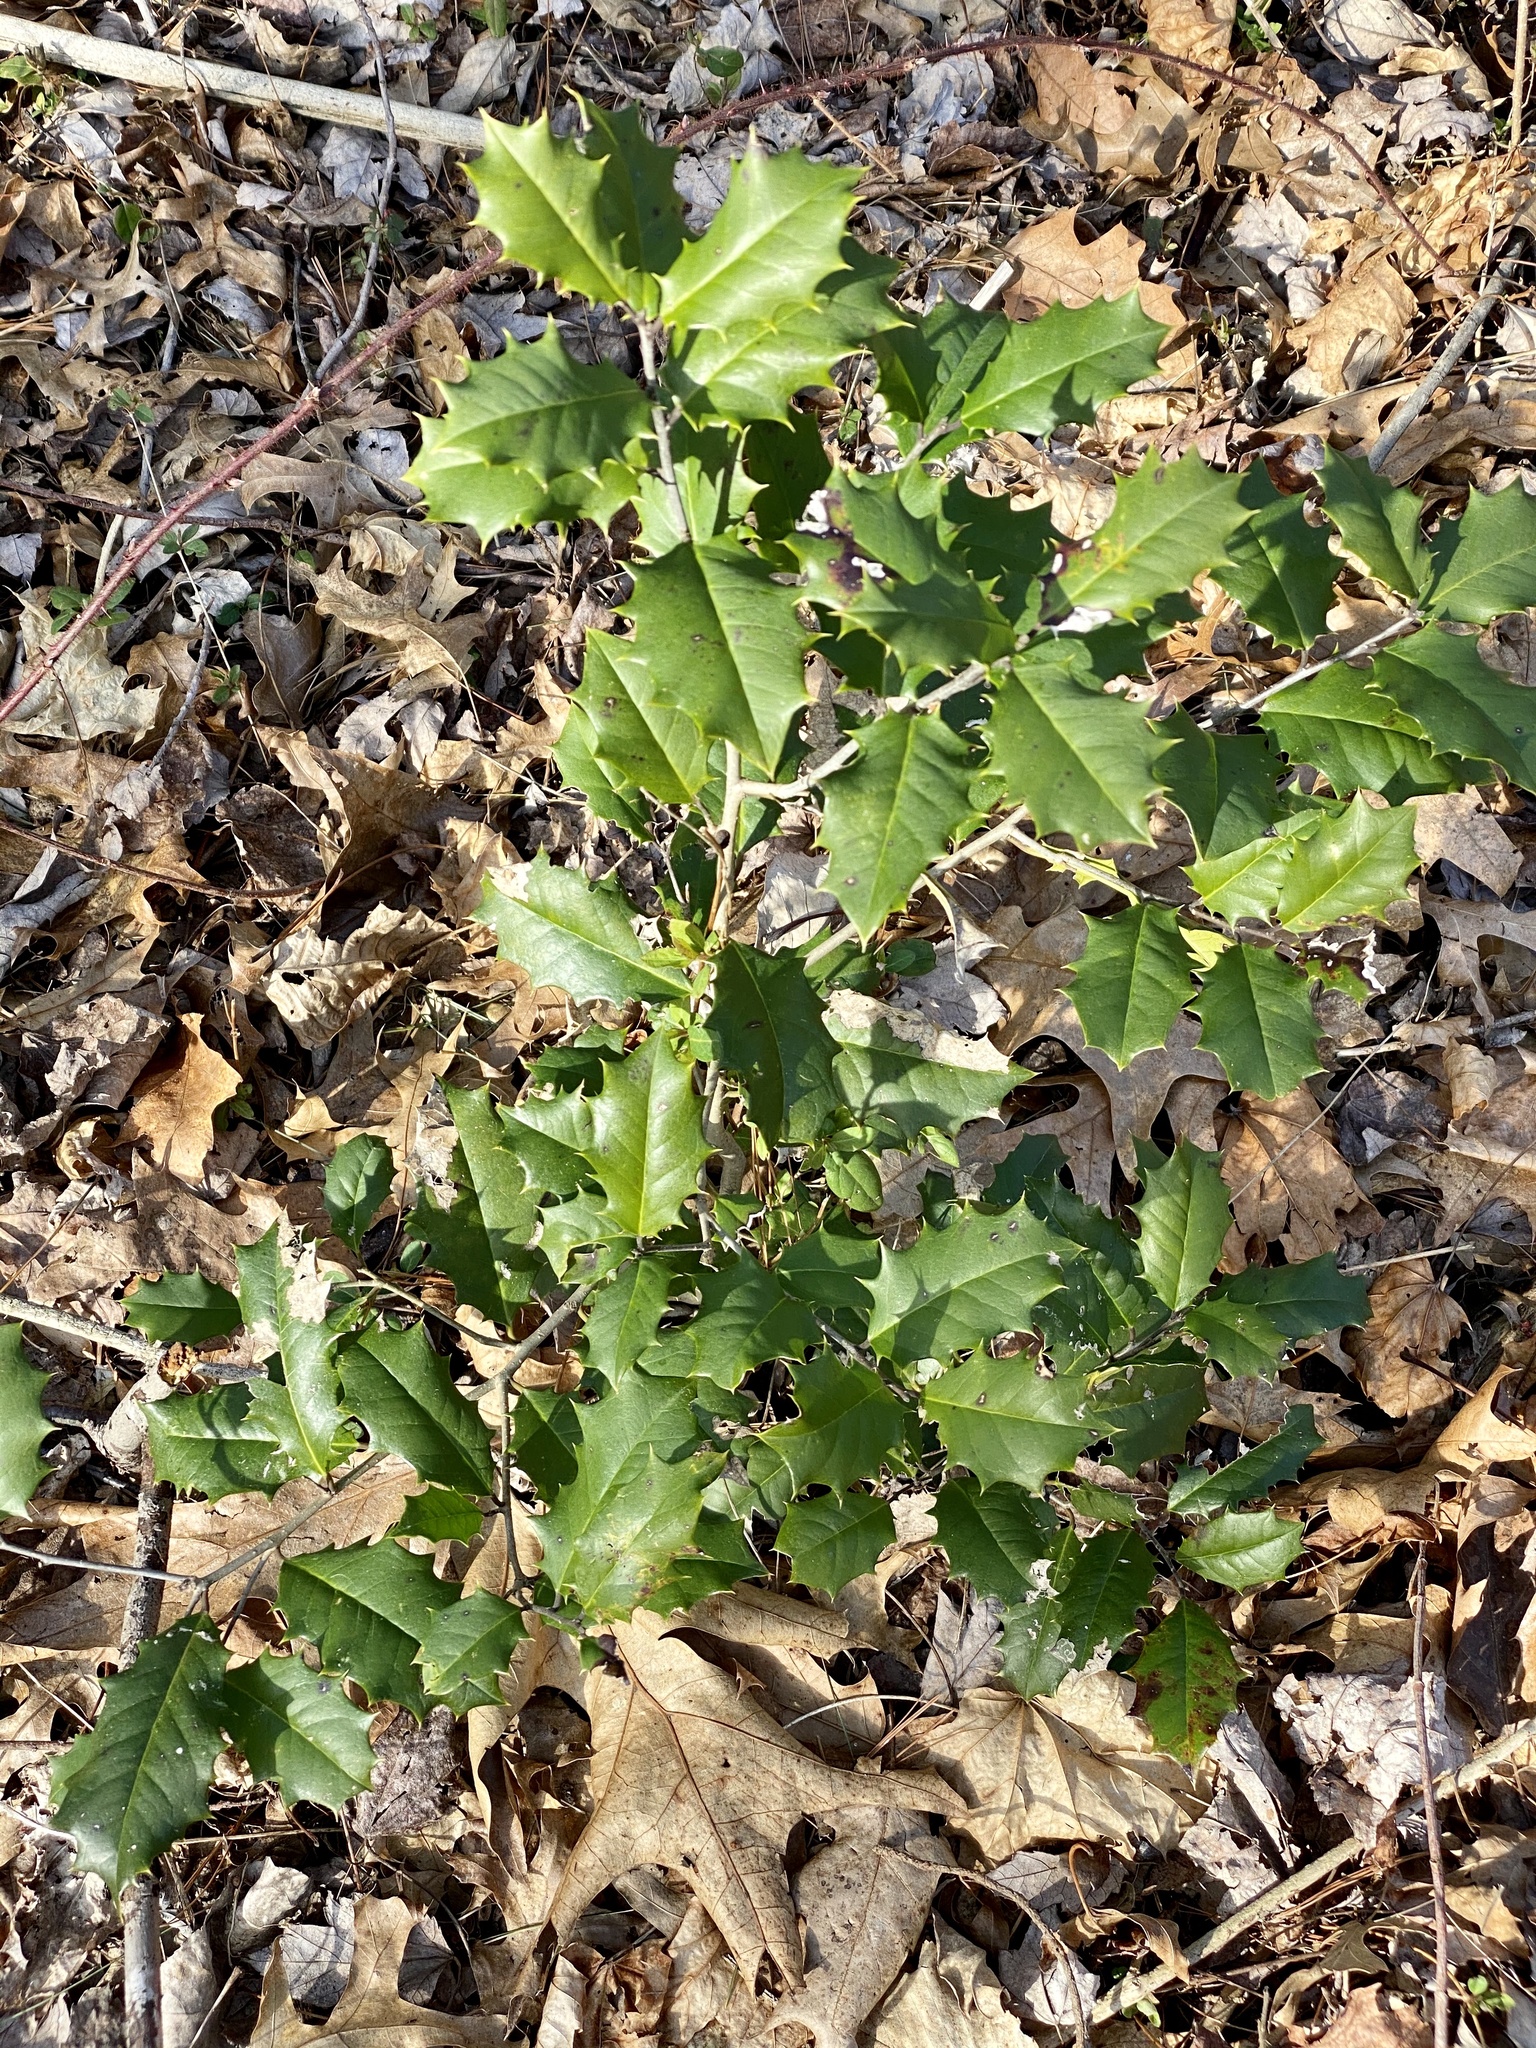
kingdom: Plantae
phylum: Tracheophyta
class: Magnoliopsida
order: Aquifoliales
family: Aquifoliaceae
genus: Ilex
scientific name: Ilex opaca
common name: American holly
